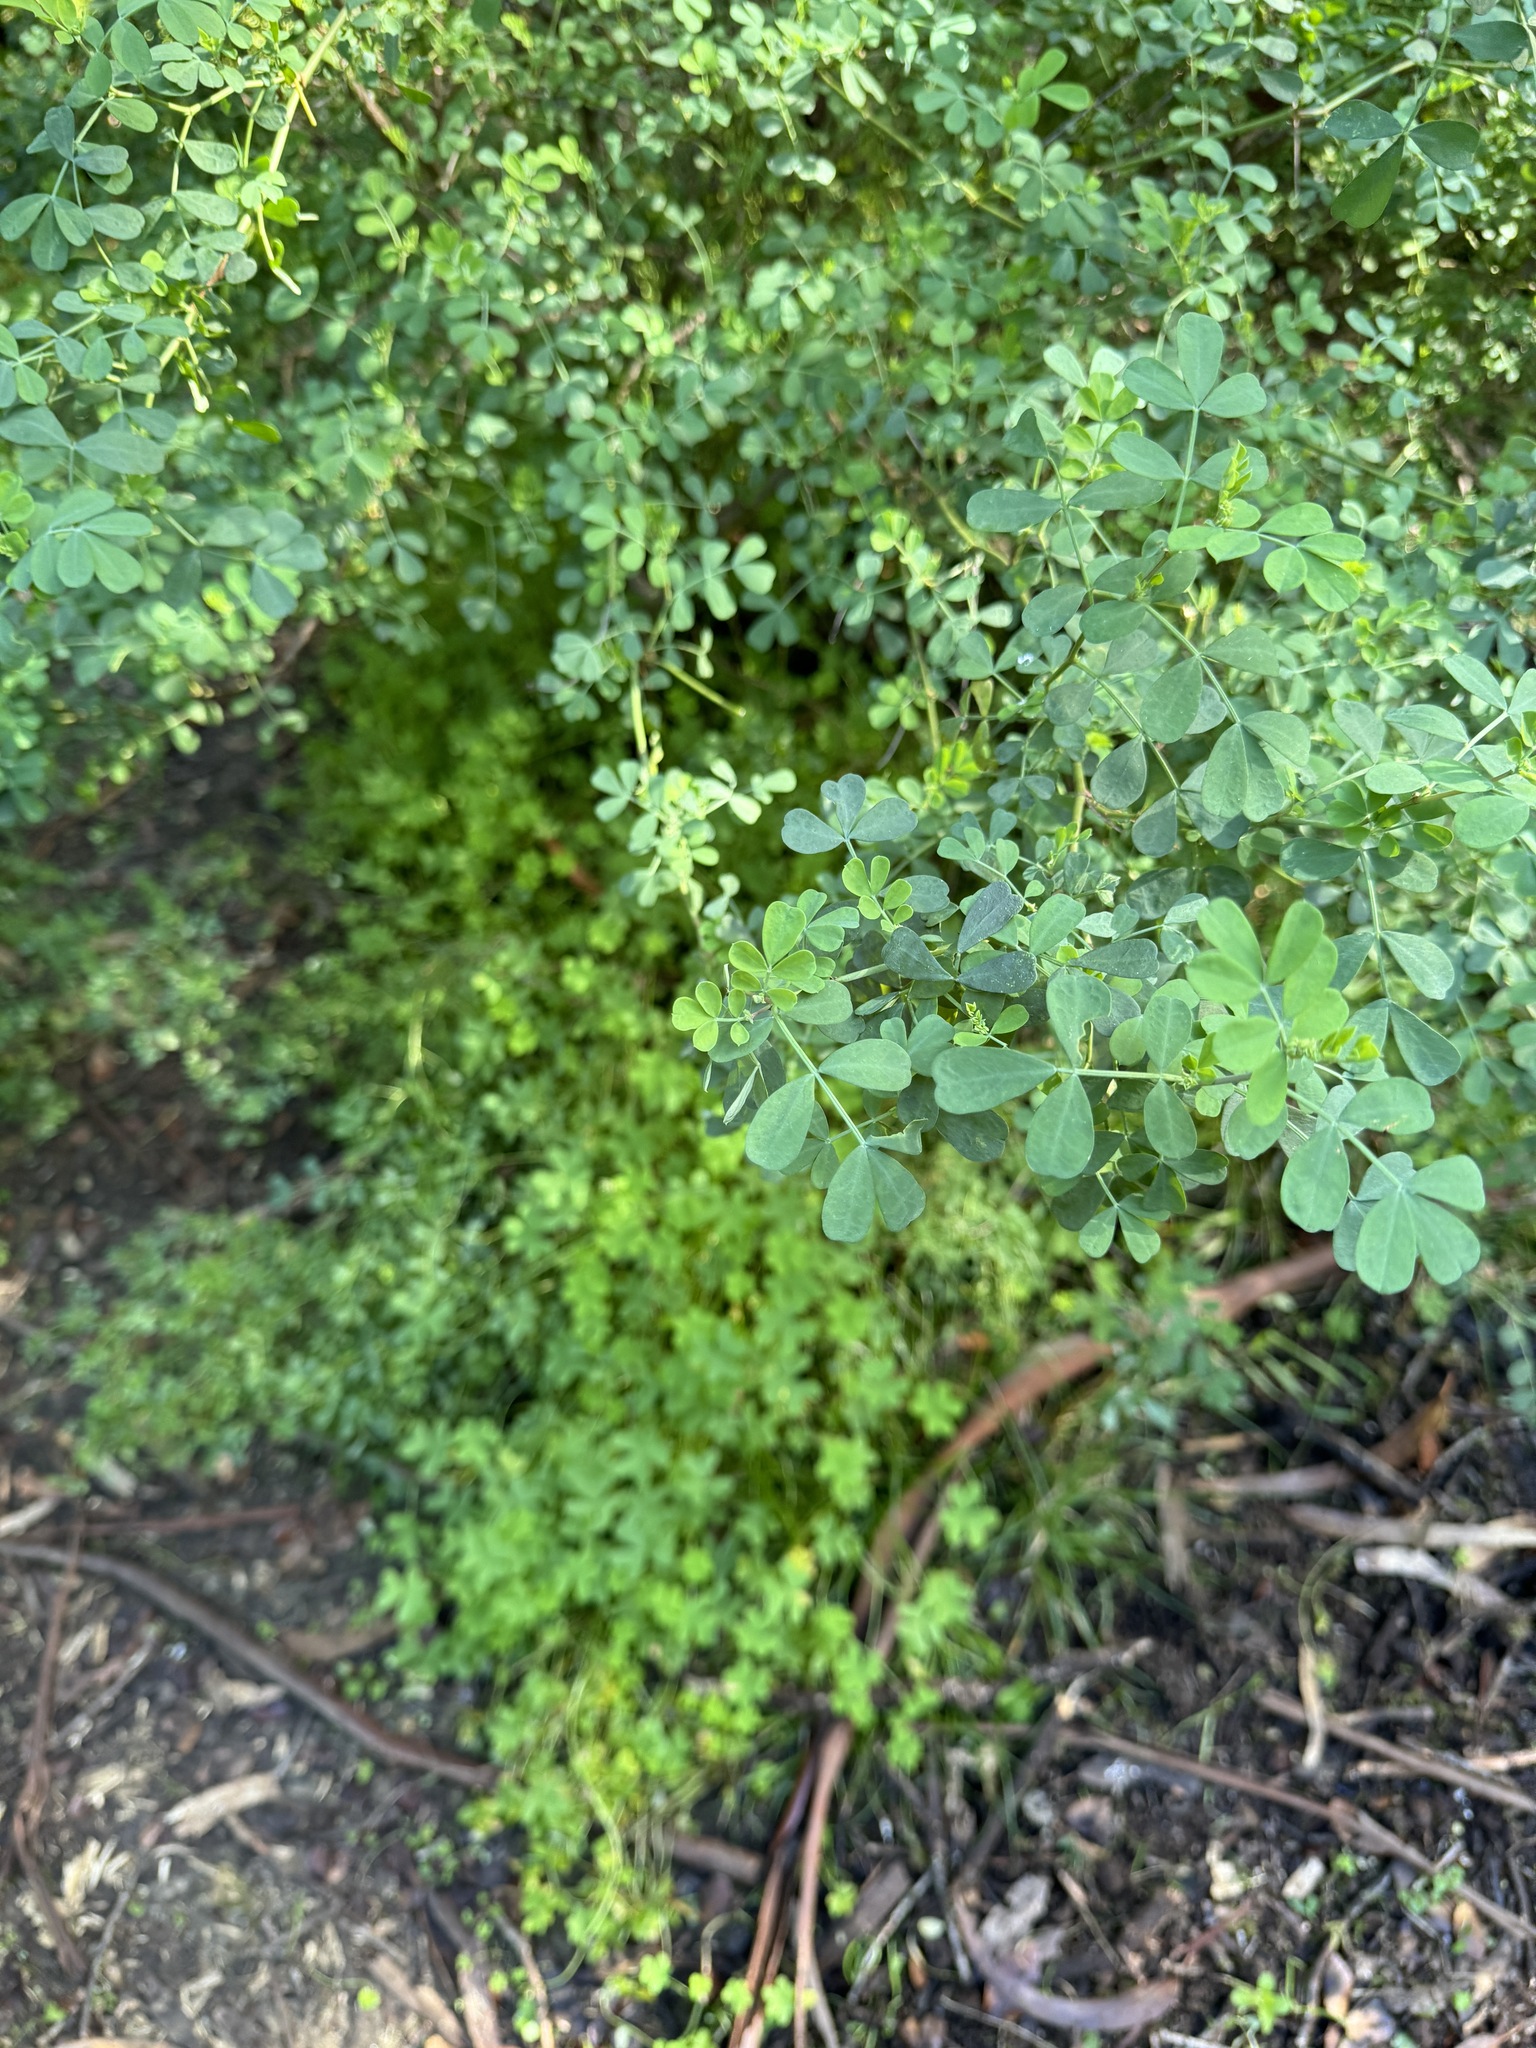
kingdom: Plantae
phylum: Tracheophyta
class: Magnoliopsida
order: Fabales
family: Fabaceae
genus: Coronilla
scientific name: Coronilla valentina
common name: Shrubby scorpion-vetch
